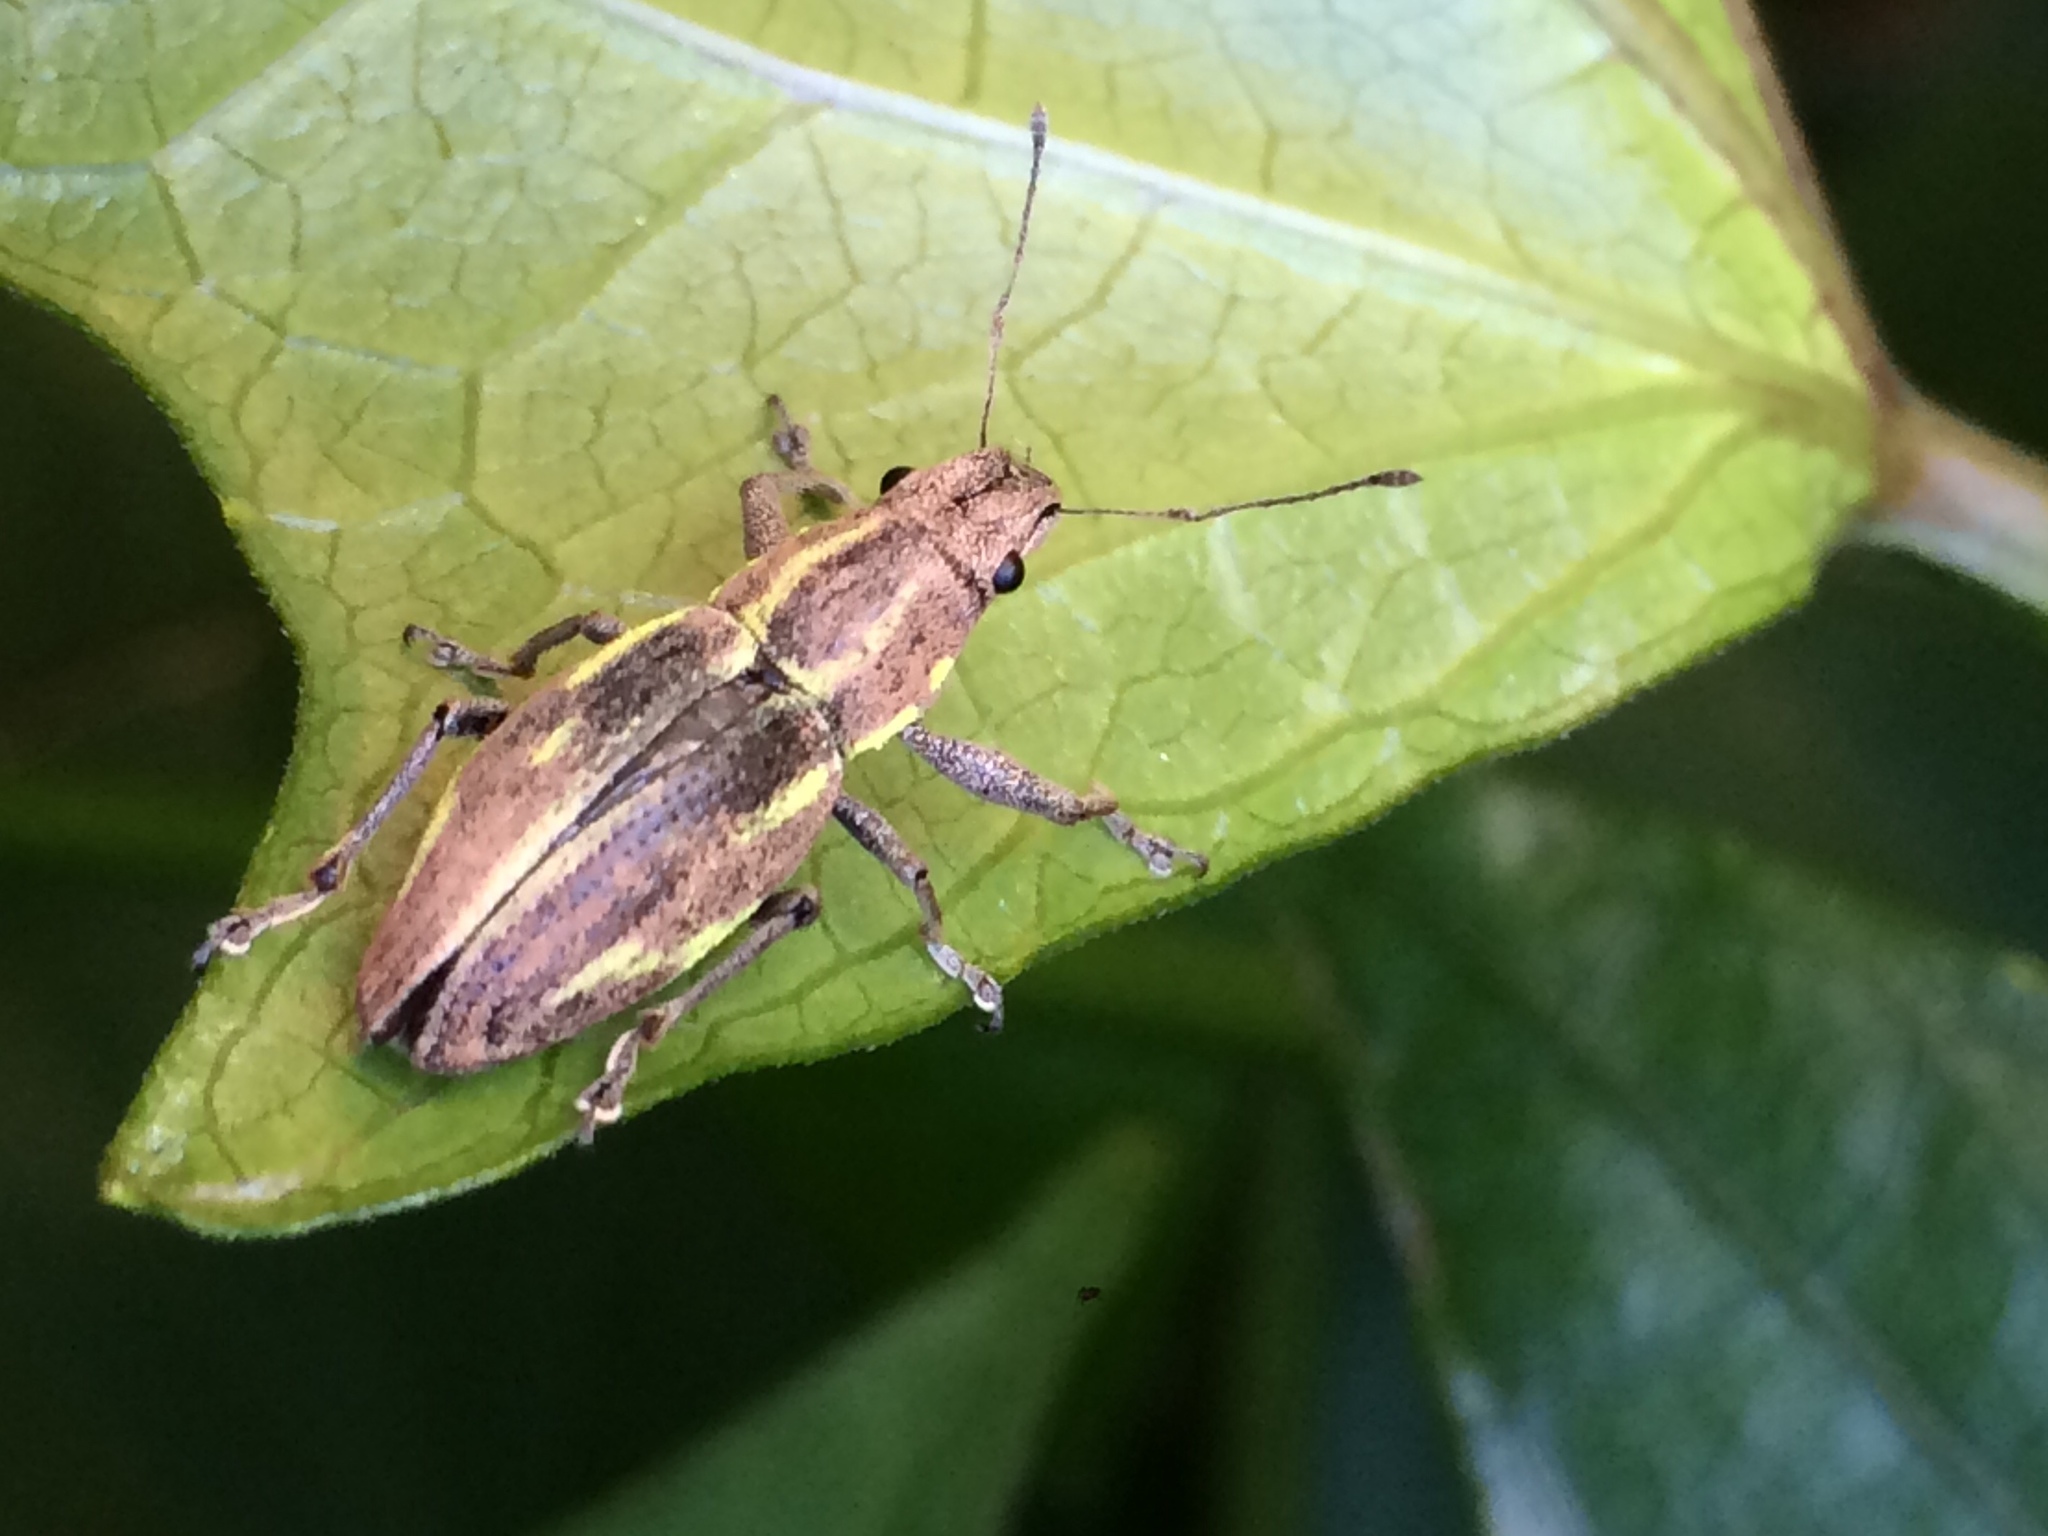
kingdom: Animalia
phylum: Arthropoda
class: Insecta
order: Coleoptera
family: Curculionidae
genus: Naupactus
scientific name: Naupactus dissimilis
